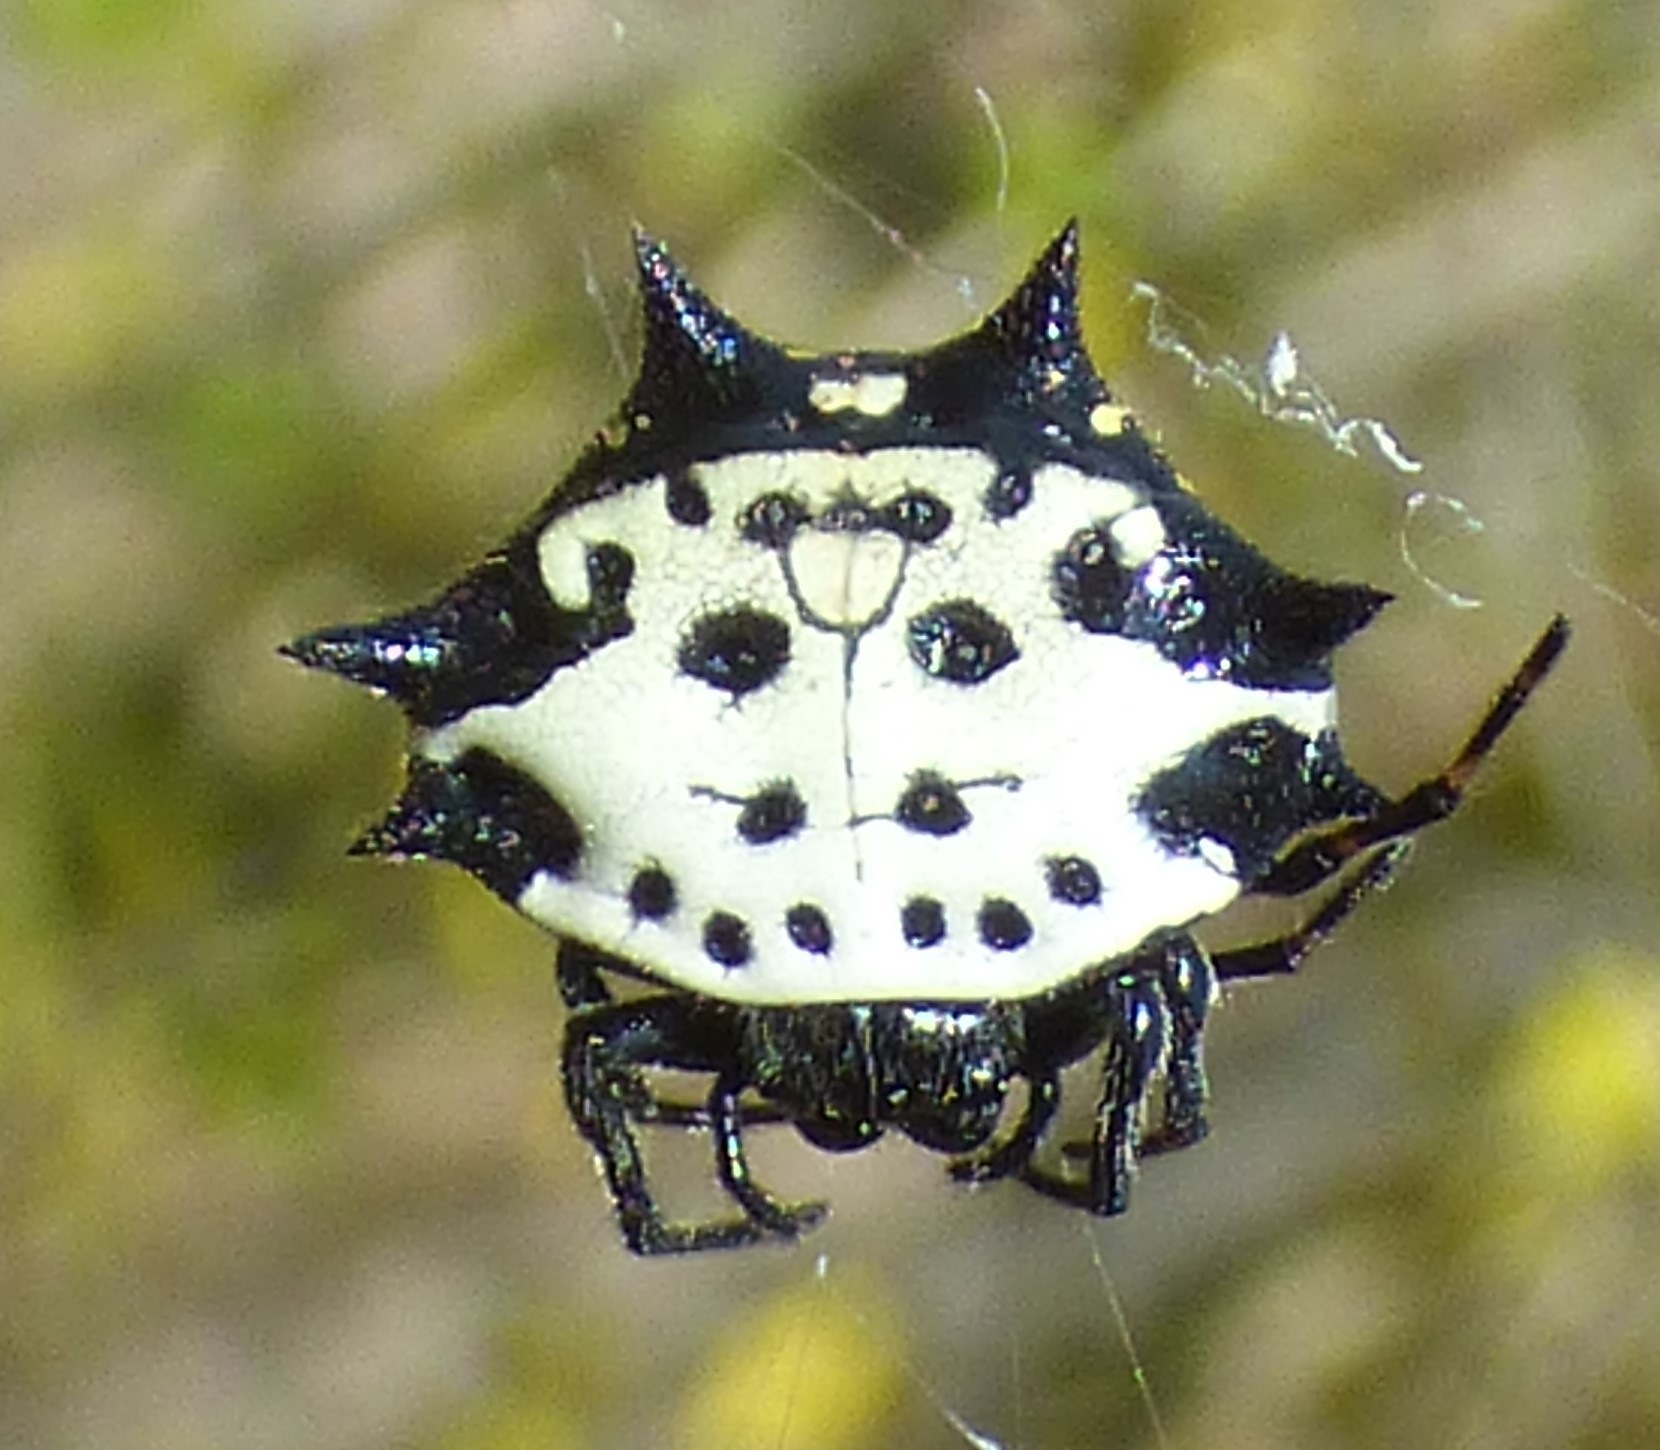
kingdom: Animalia
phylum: Arthropoda
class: Arachnida
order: Araneae
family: Araneidae
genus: Gasteracantha
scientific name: Gasteracantha cancriformis
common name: Orb weavers
